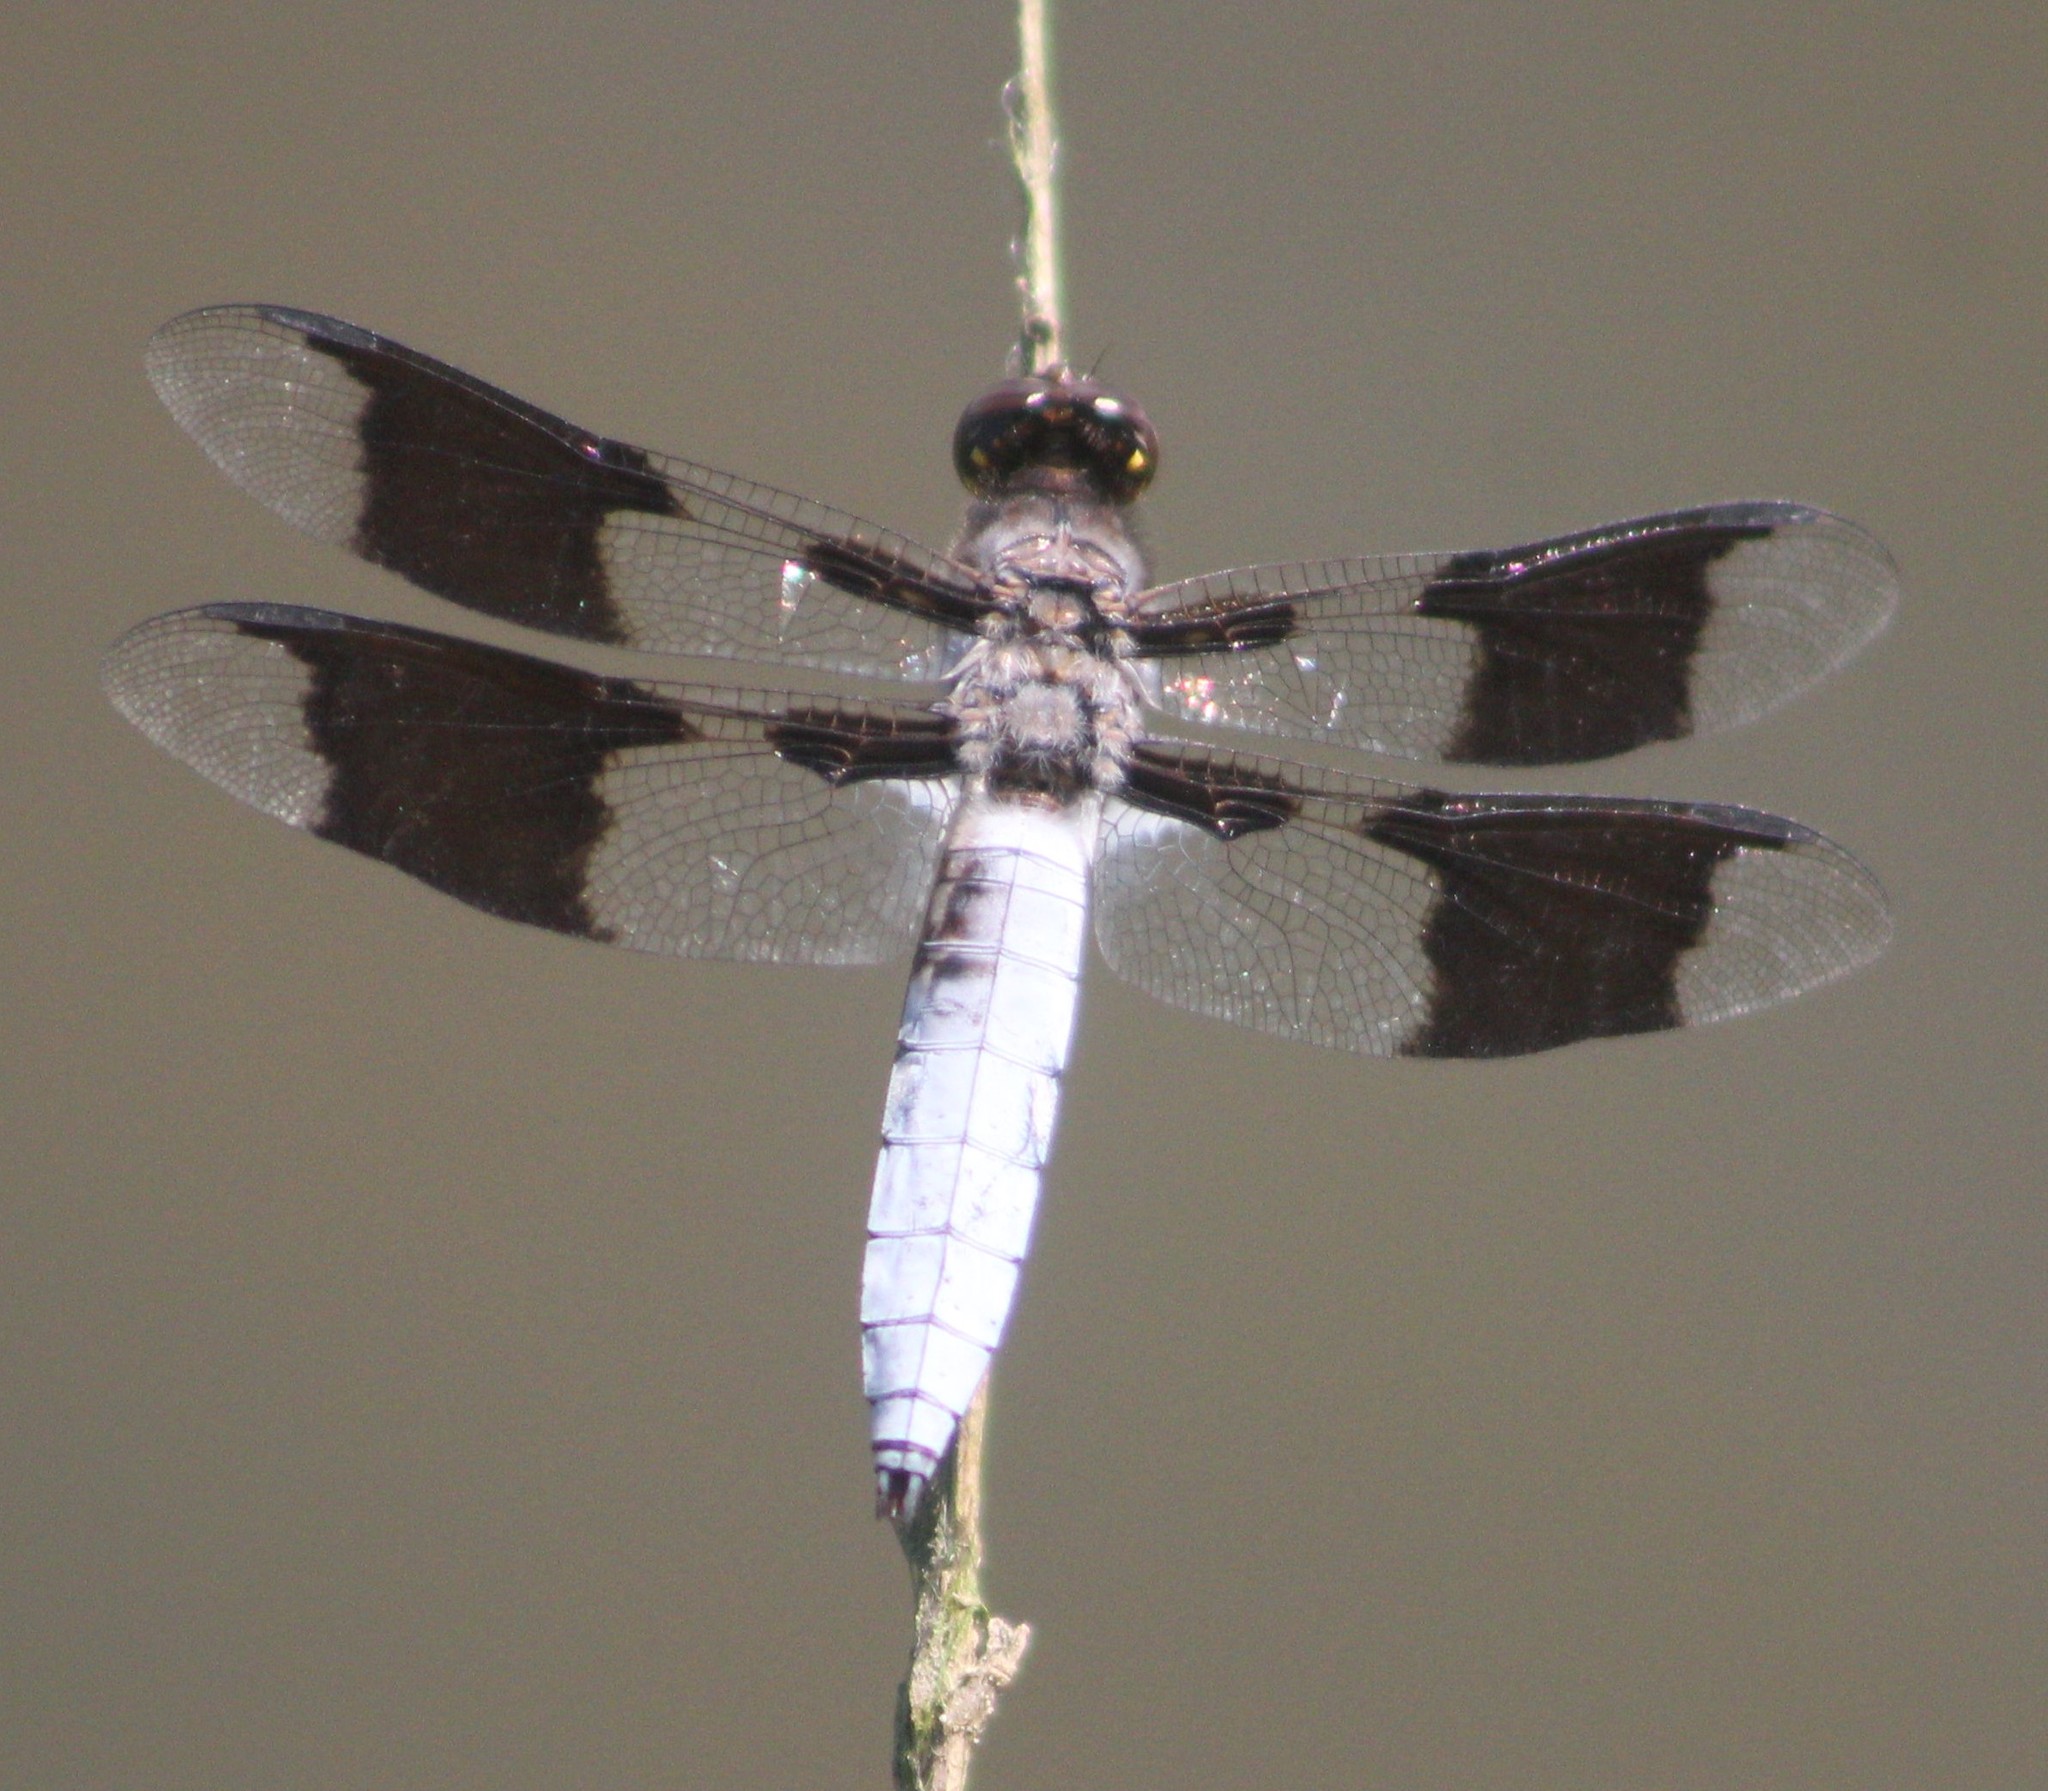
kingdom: Animalia
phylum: Arthropoda
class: Insecta
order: Odonata
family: Libellulidae
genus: Plathemis
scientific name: Plathemis lydia
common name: Common whitetail
